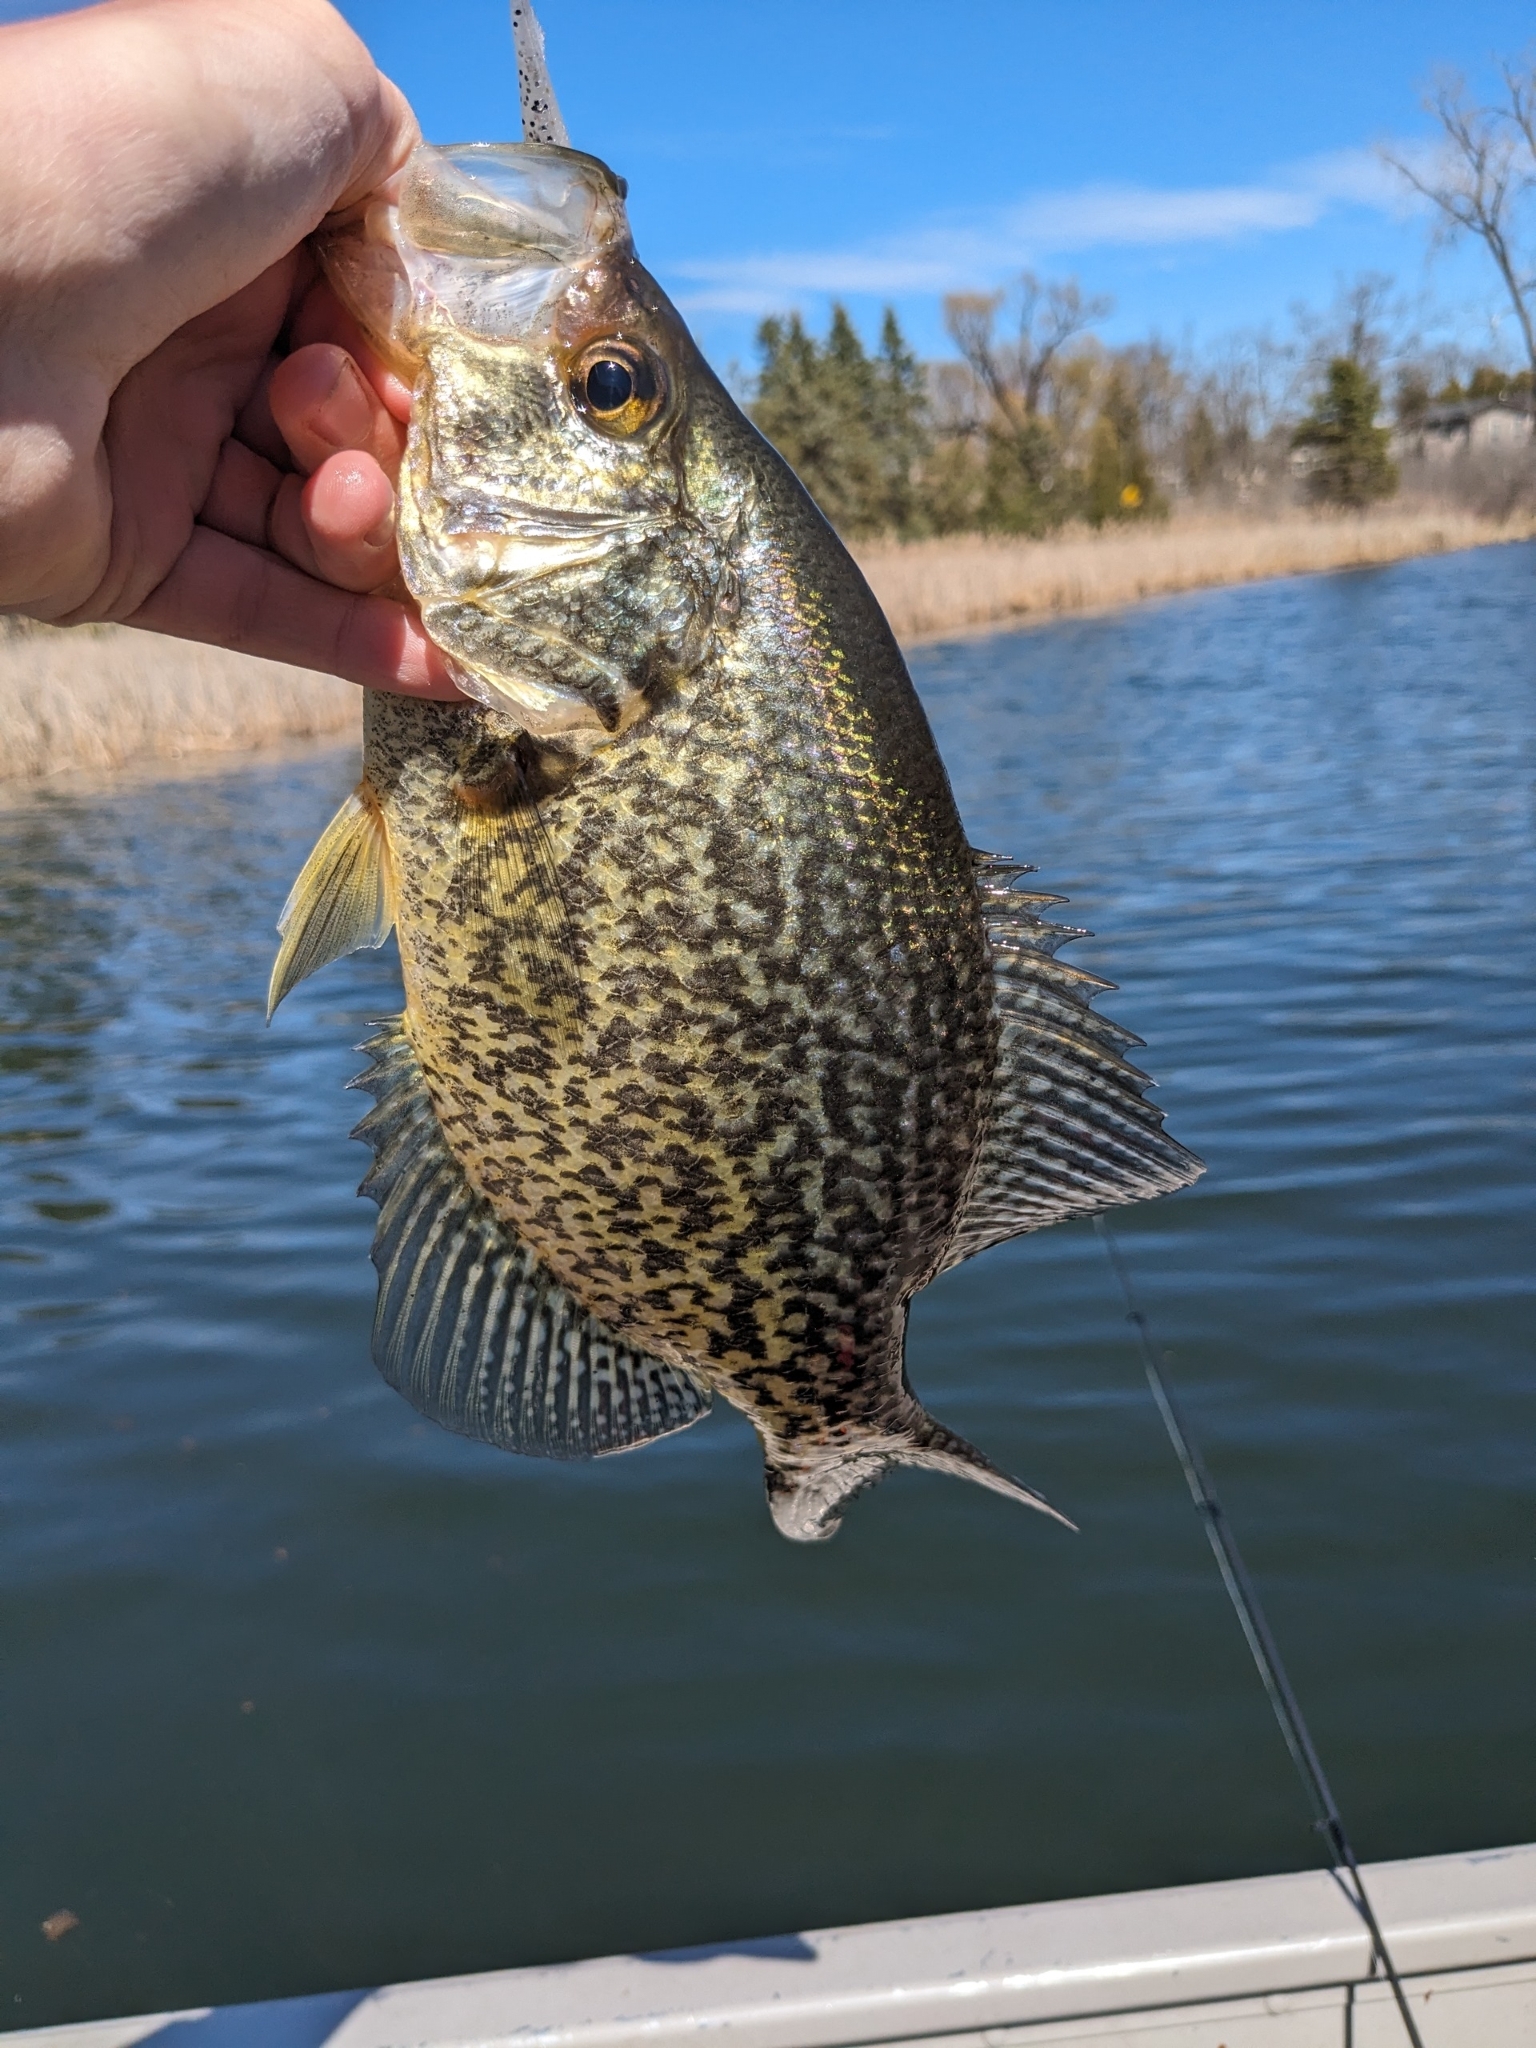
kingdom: Animalia
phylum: Chordata
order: Perciformes
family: Centrarchidae
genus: Pomoxis
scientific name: Pomoxis nigromaculatus
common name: Black crappie
